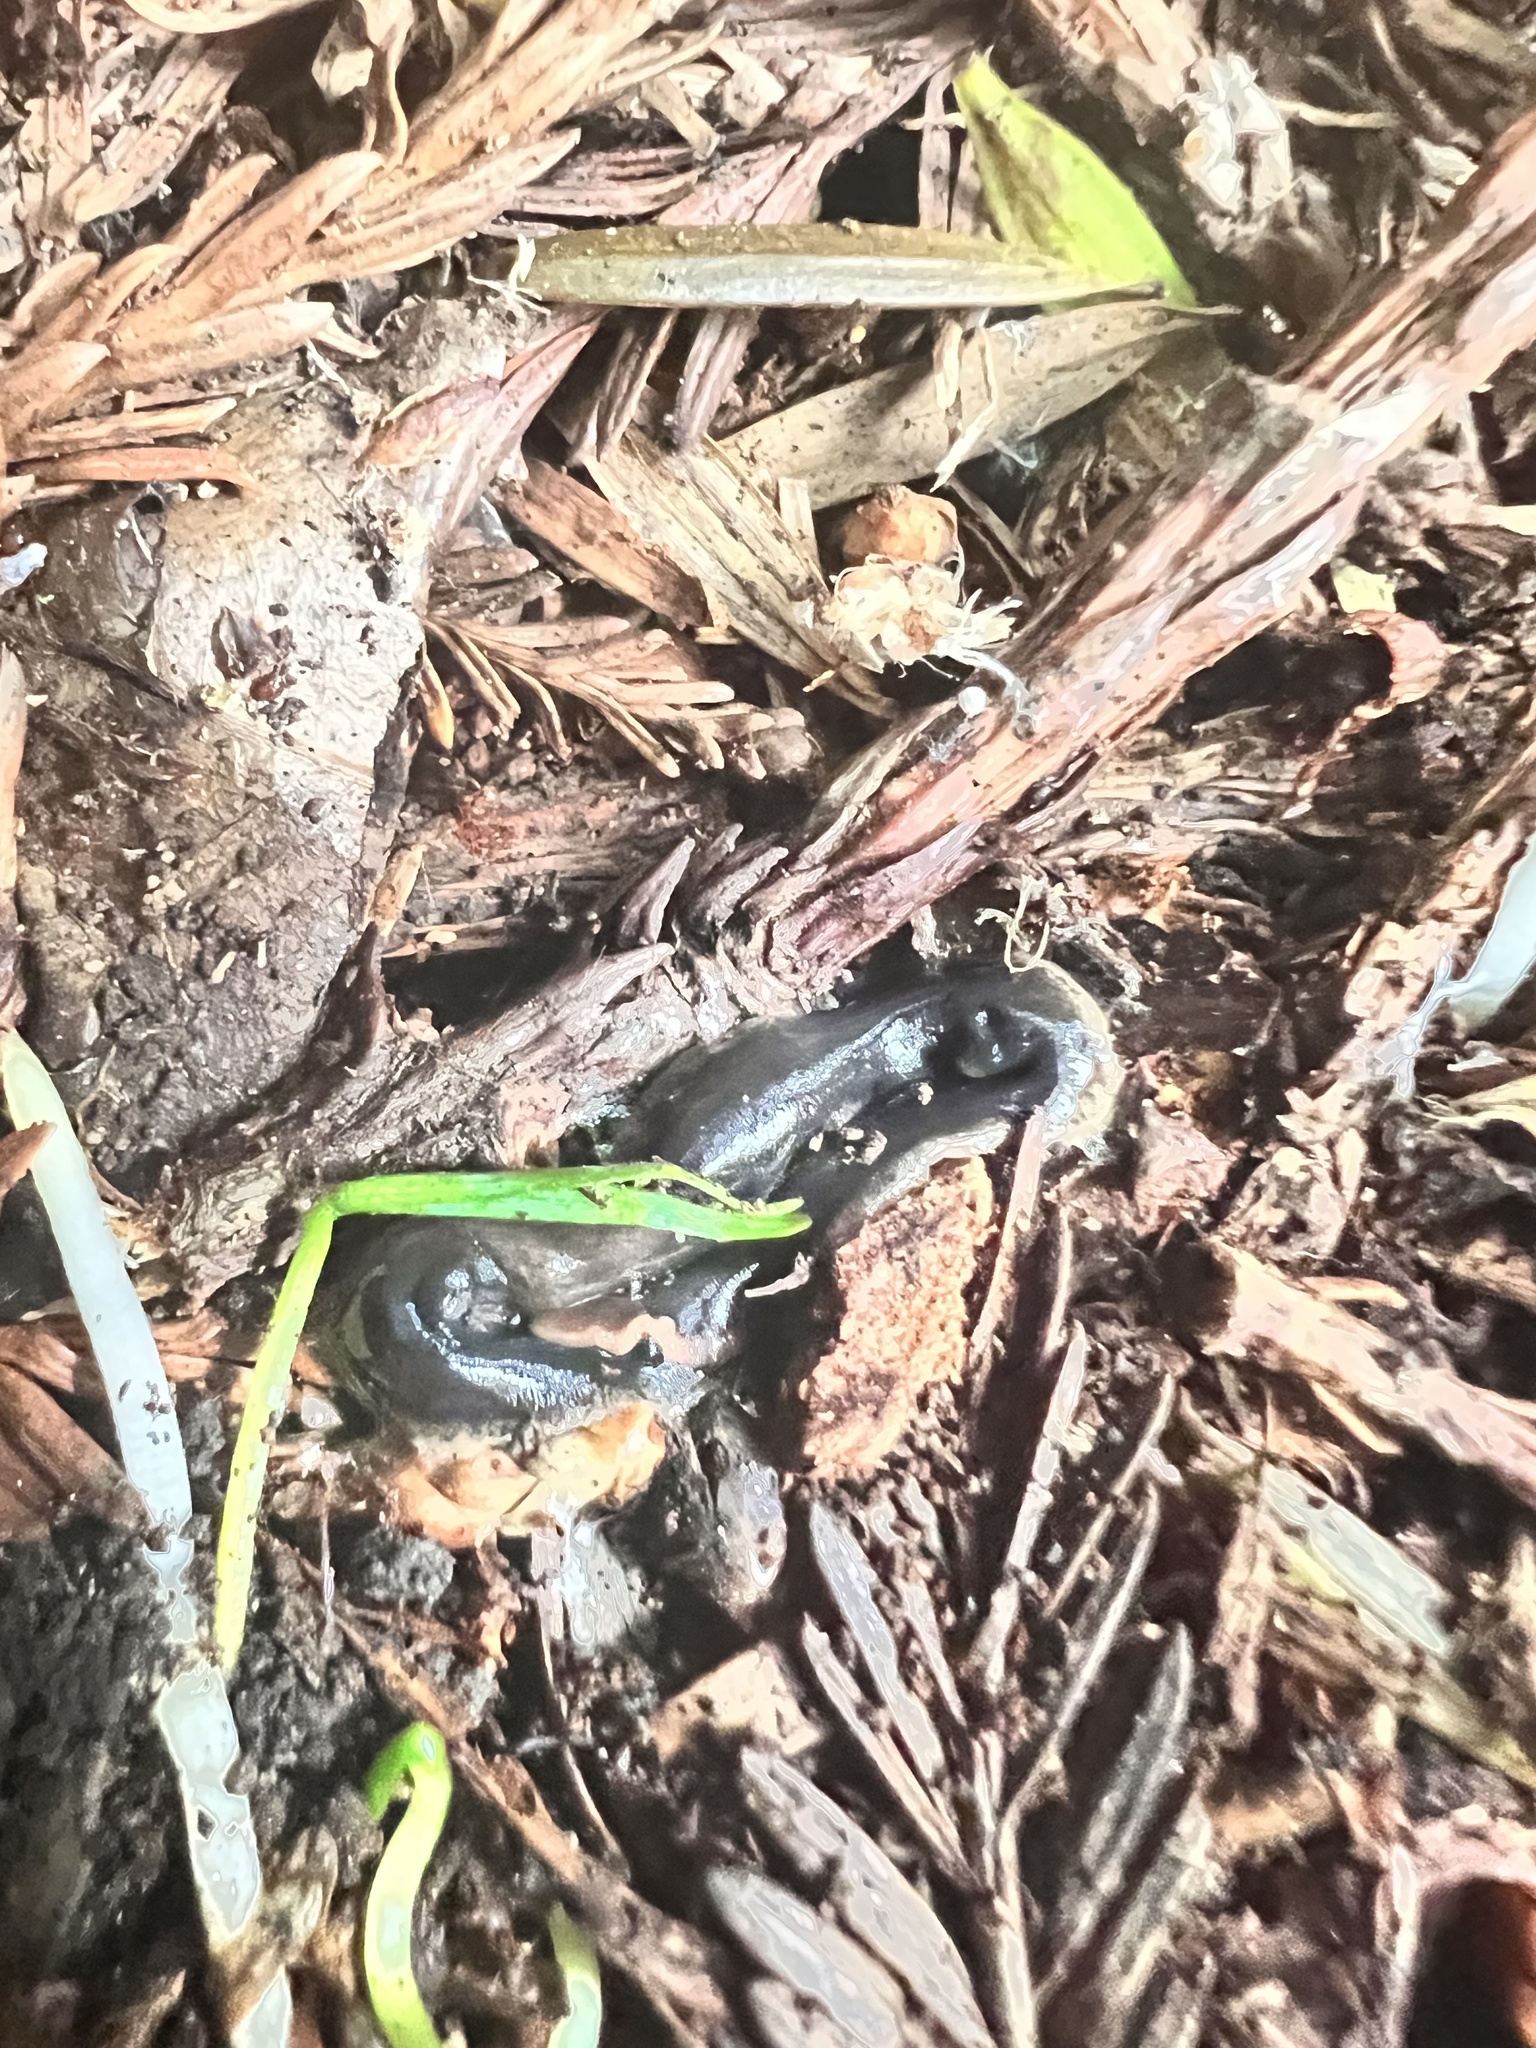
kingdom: Animalia
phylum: Platyhelminthes
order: Tricladida
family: Geoplanidae
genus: Arthurdendyus
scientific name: Arthurdendyus triangulatus
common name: New zealand flatworm
